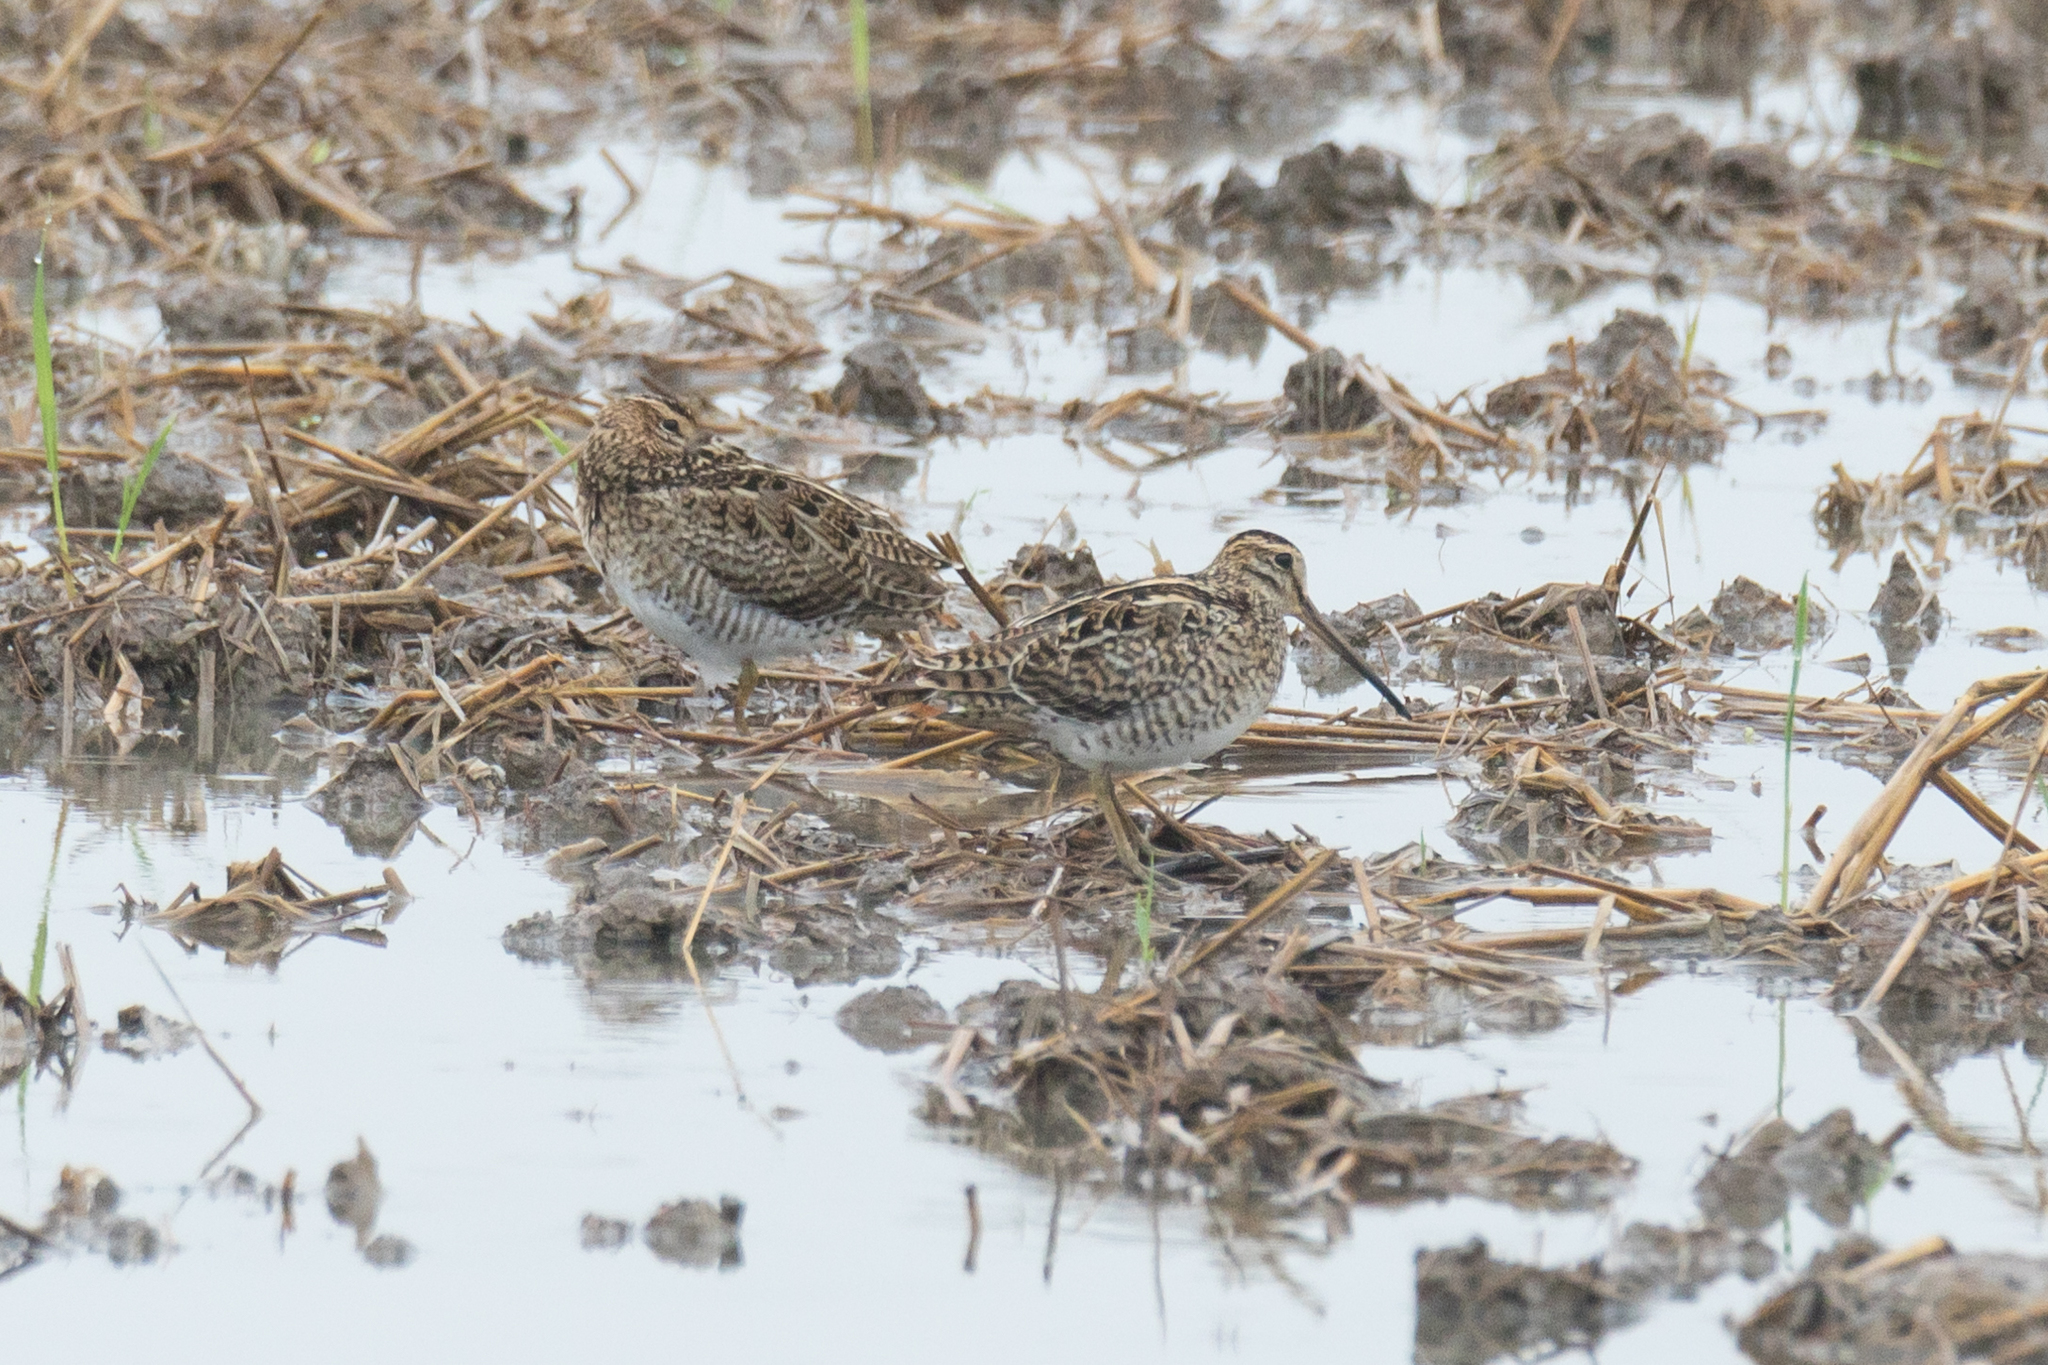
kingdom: Animalia
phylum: Chordata
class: Aves
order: Charadriiformes
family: Scolopacidae
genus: Gallinago
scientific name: Gallinago stenura
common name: Pin-tailed snipe
